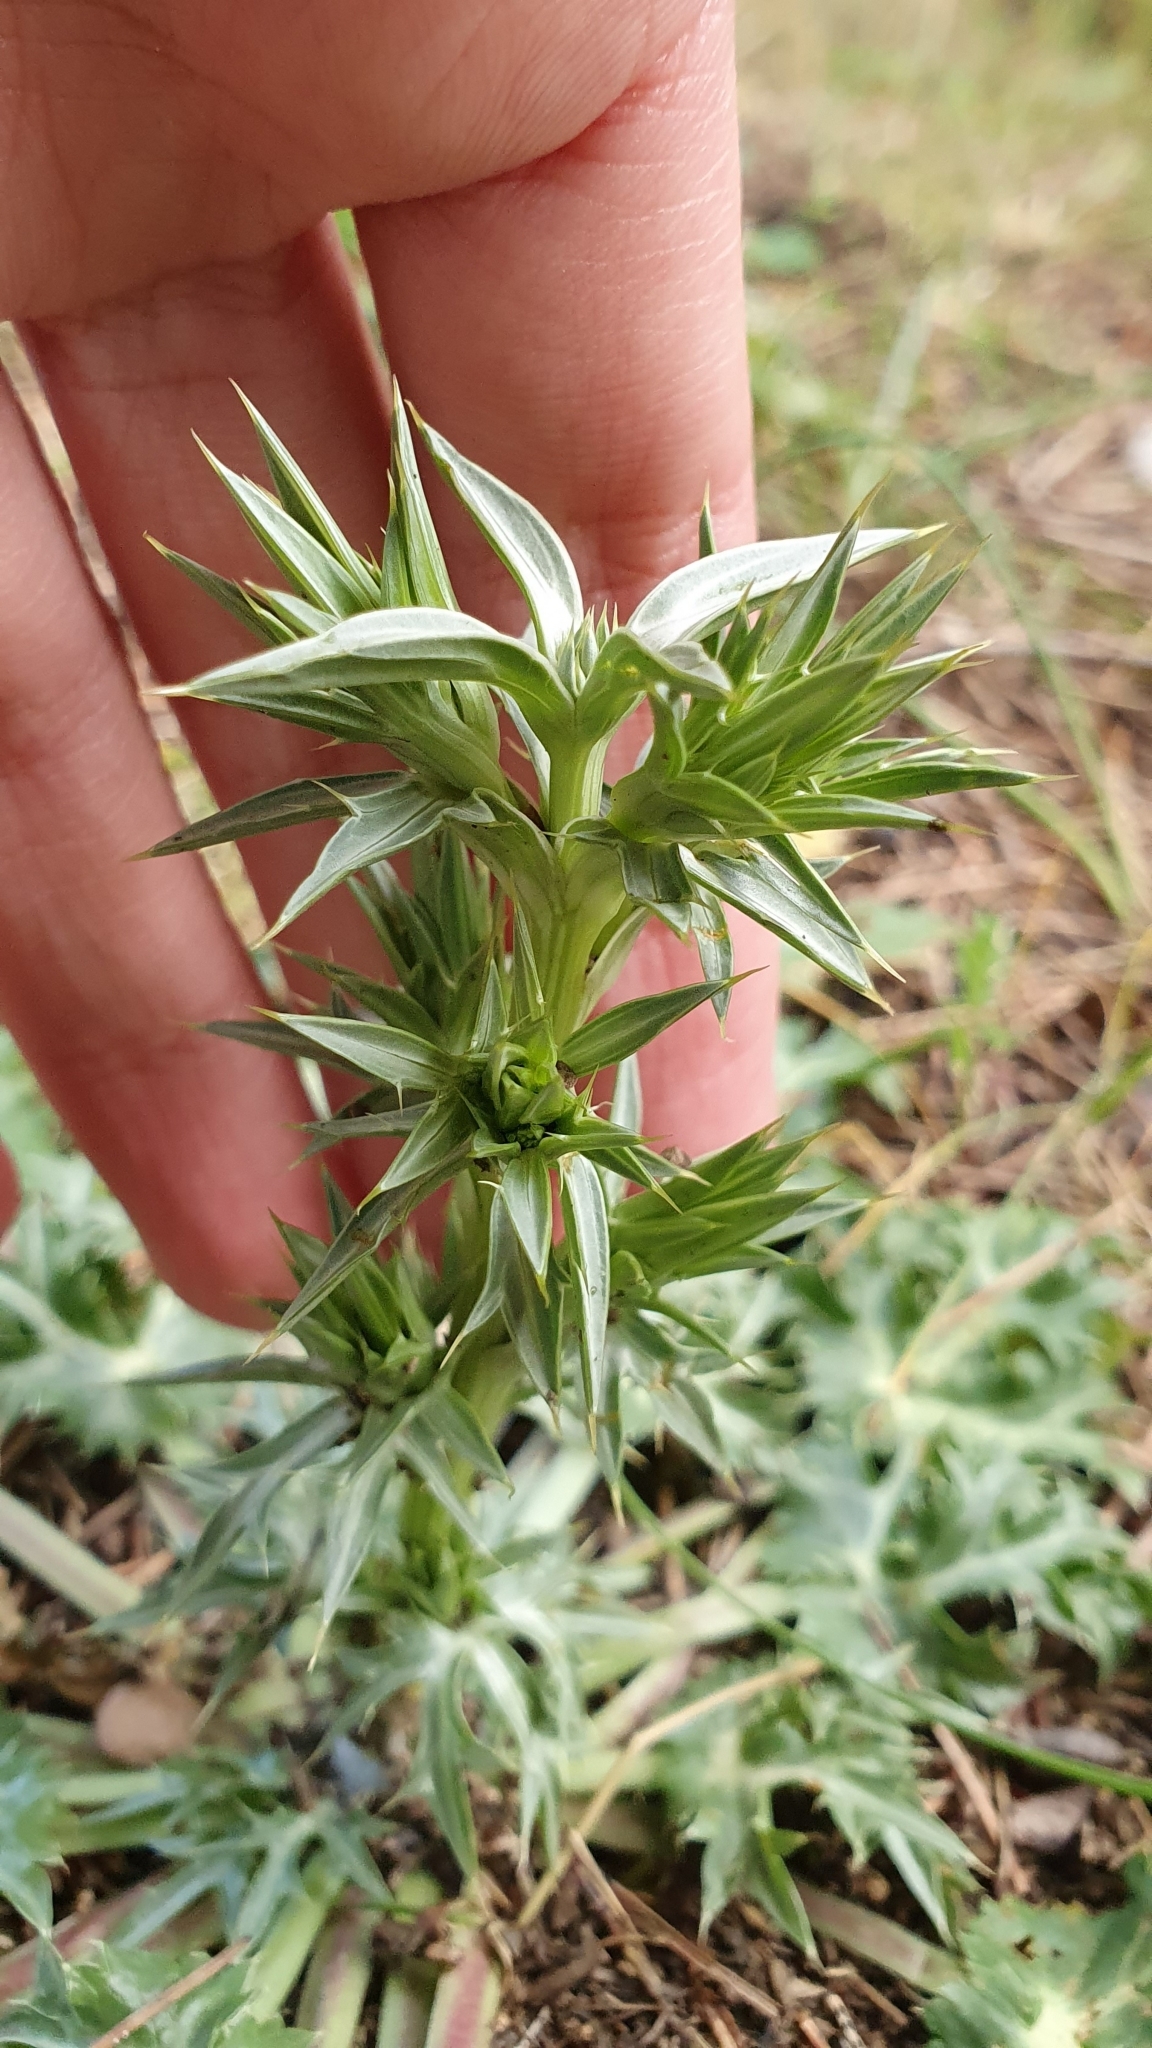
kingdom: Plantae
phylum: Tracheophyta
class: Magnoliopsida
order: Apiales
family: Apiaceae
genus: Eryngium
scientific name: Eryngium triquetrum
